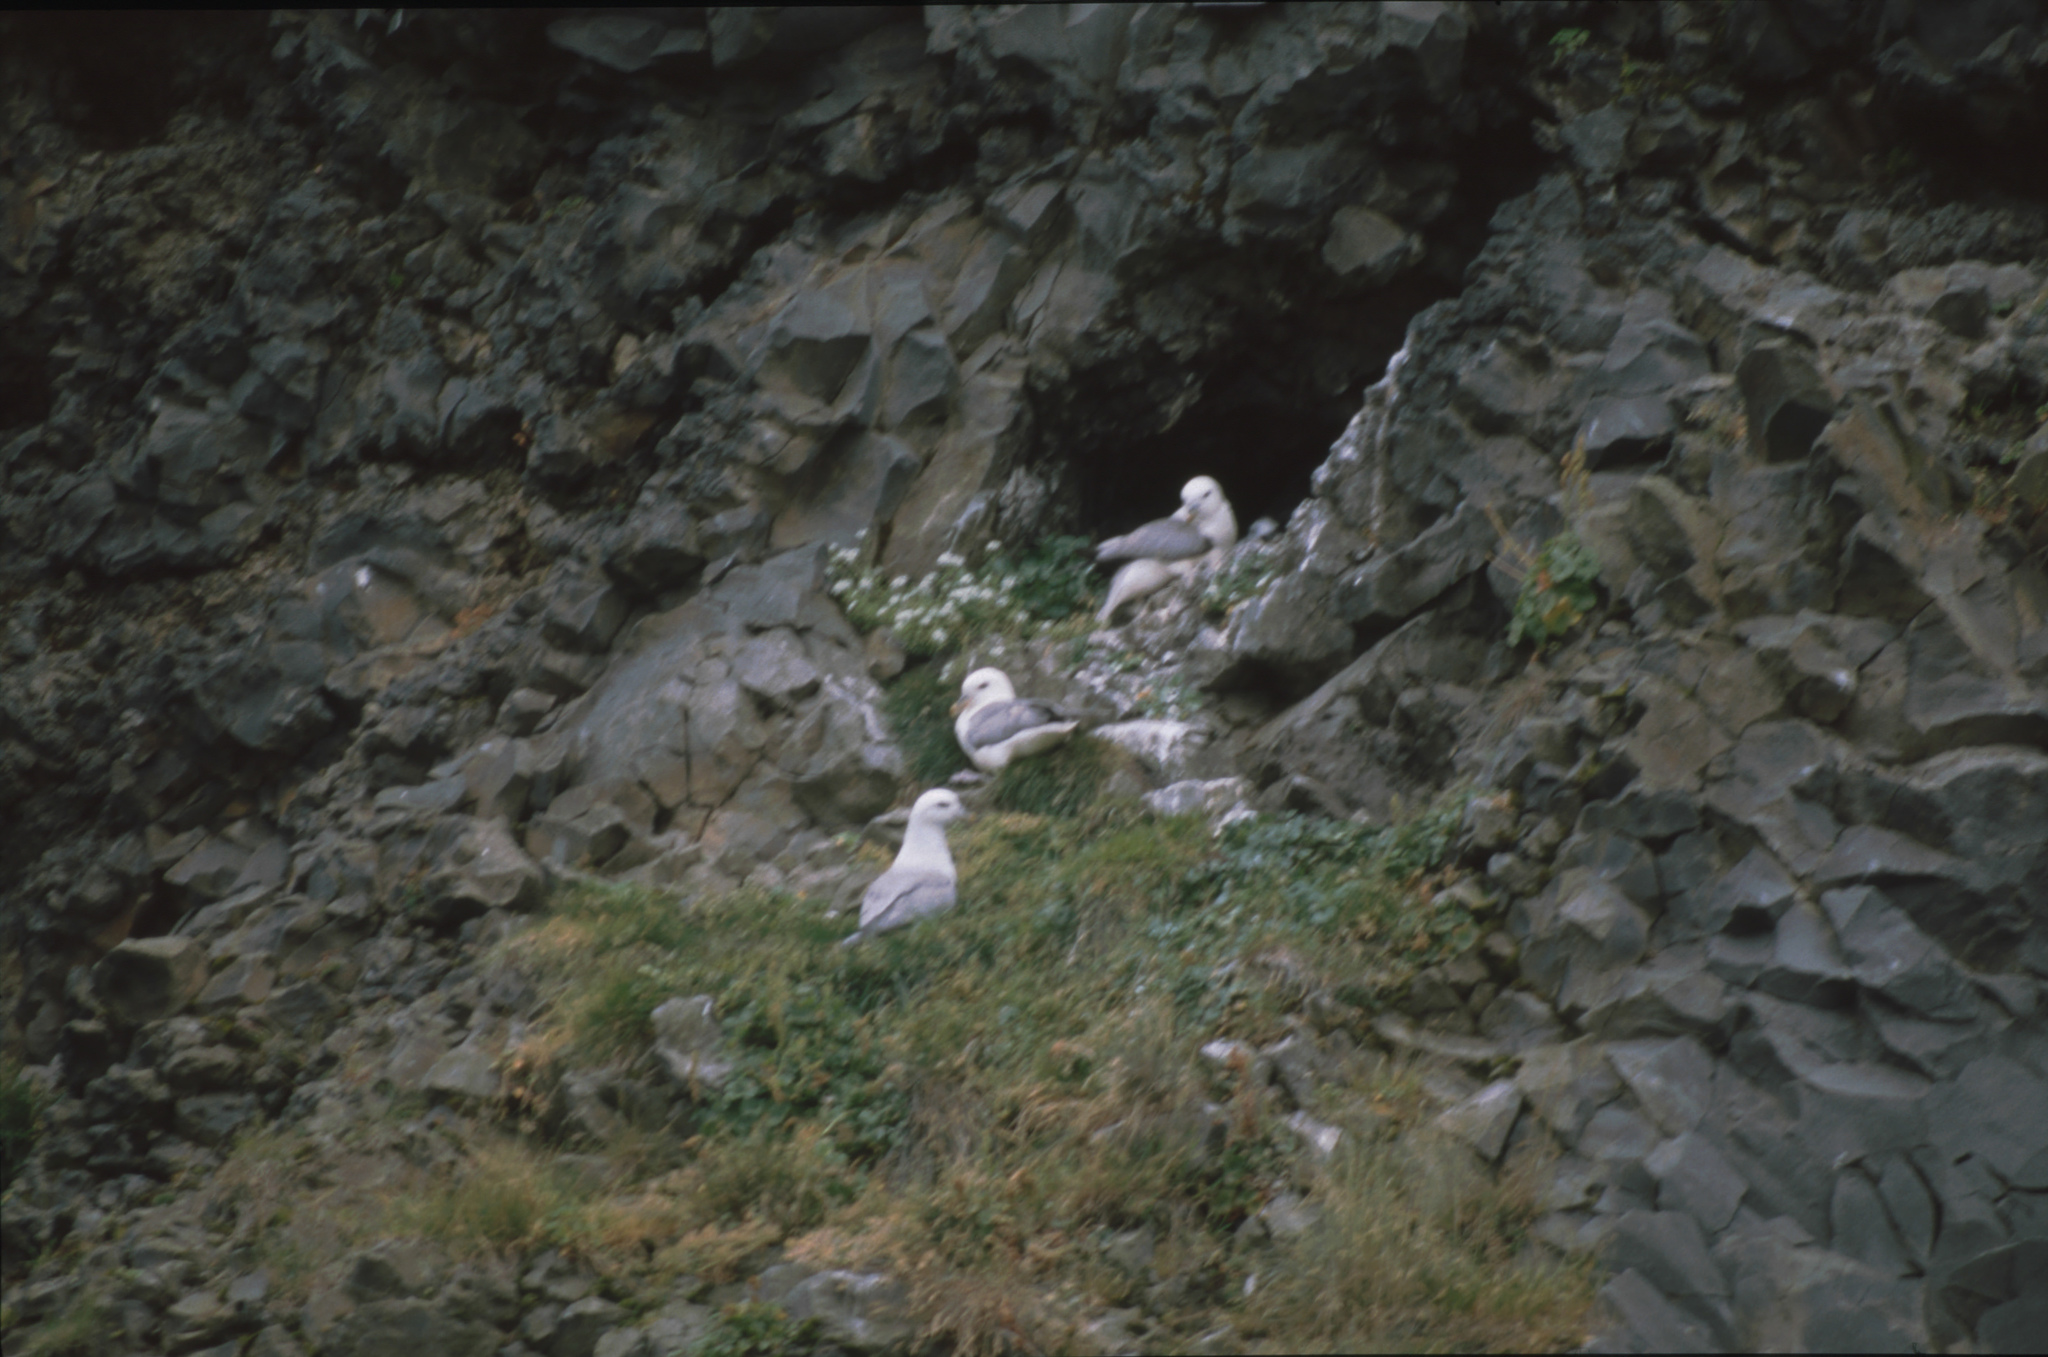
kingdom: Animalia
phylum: Chordata
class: Aves
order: Procellariiformes
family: Procellariidae
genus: Fulmarus
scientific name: Fulmarus glacialis
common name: Northern fulmar
